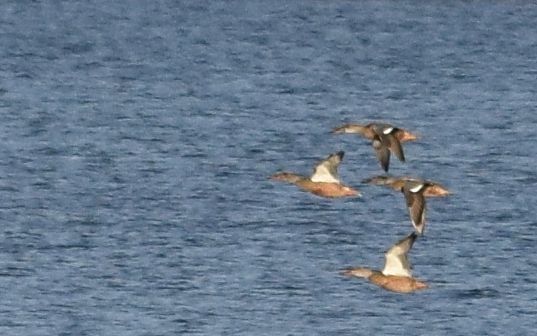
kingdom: Animalia
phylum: Chordata
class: Aves
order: Anseriformes
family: Anatidae
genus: Spatula
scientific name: Spatula clypeata
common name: Northern shoveler
